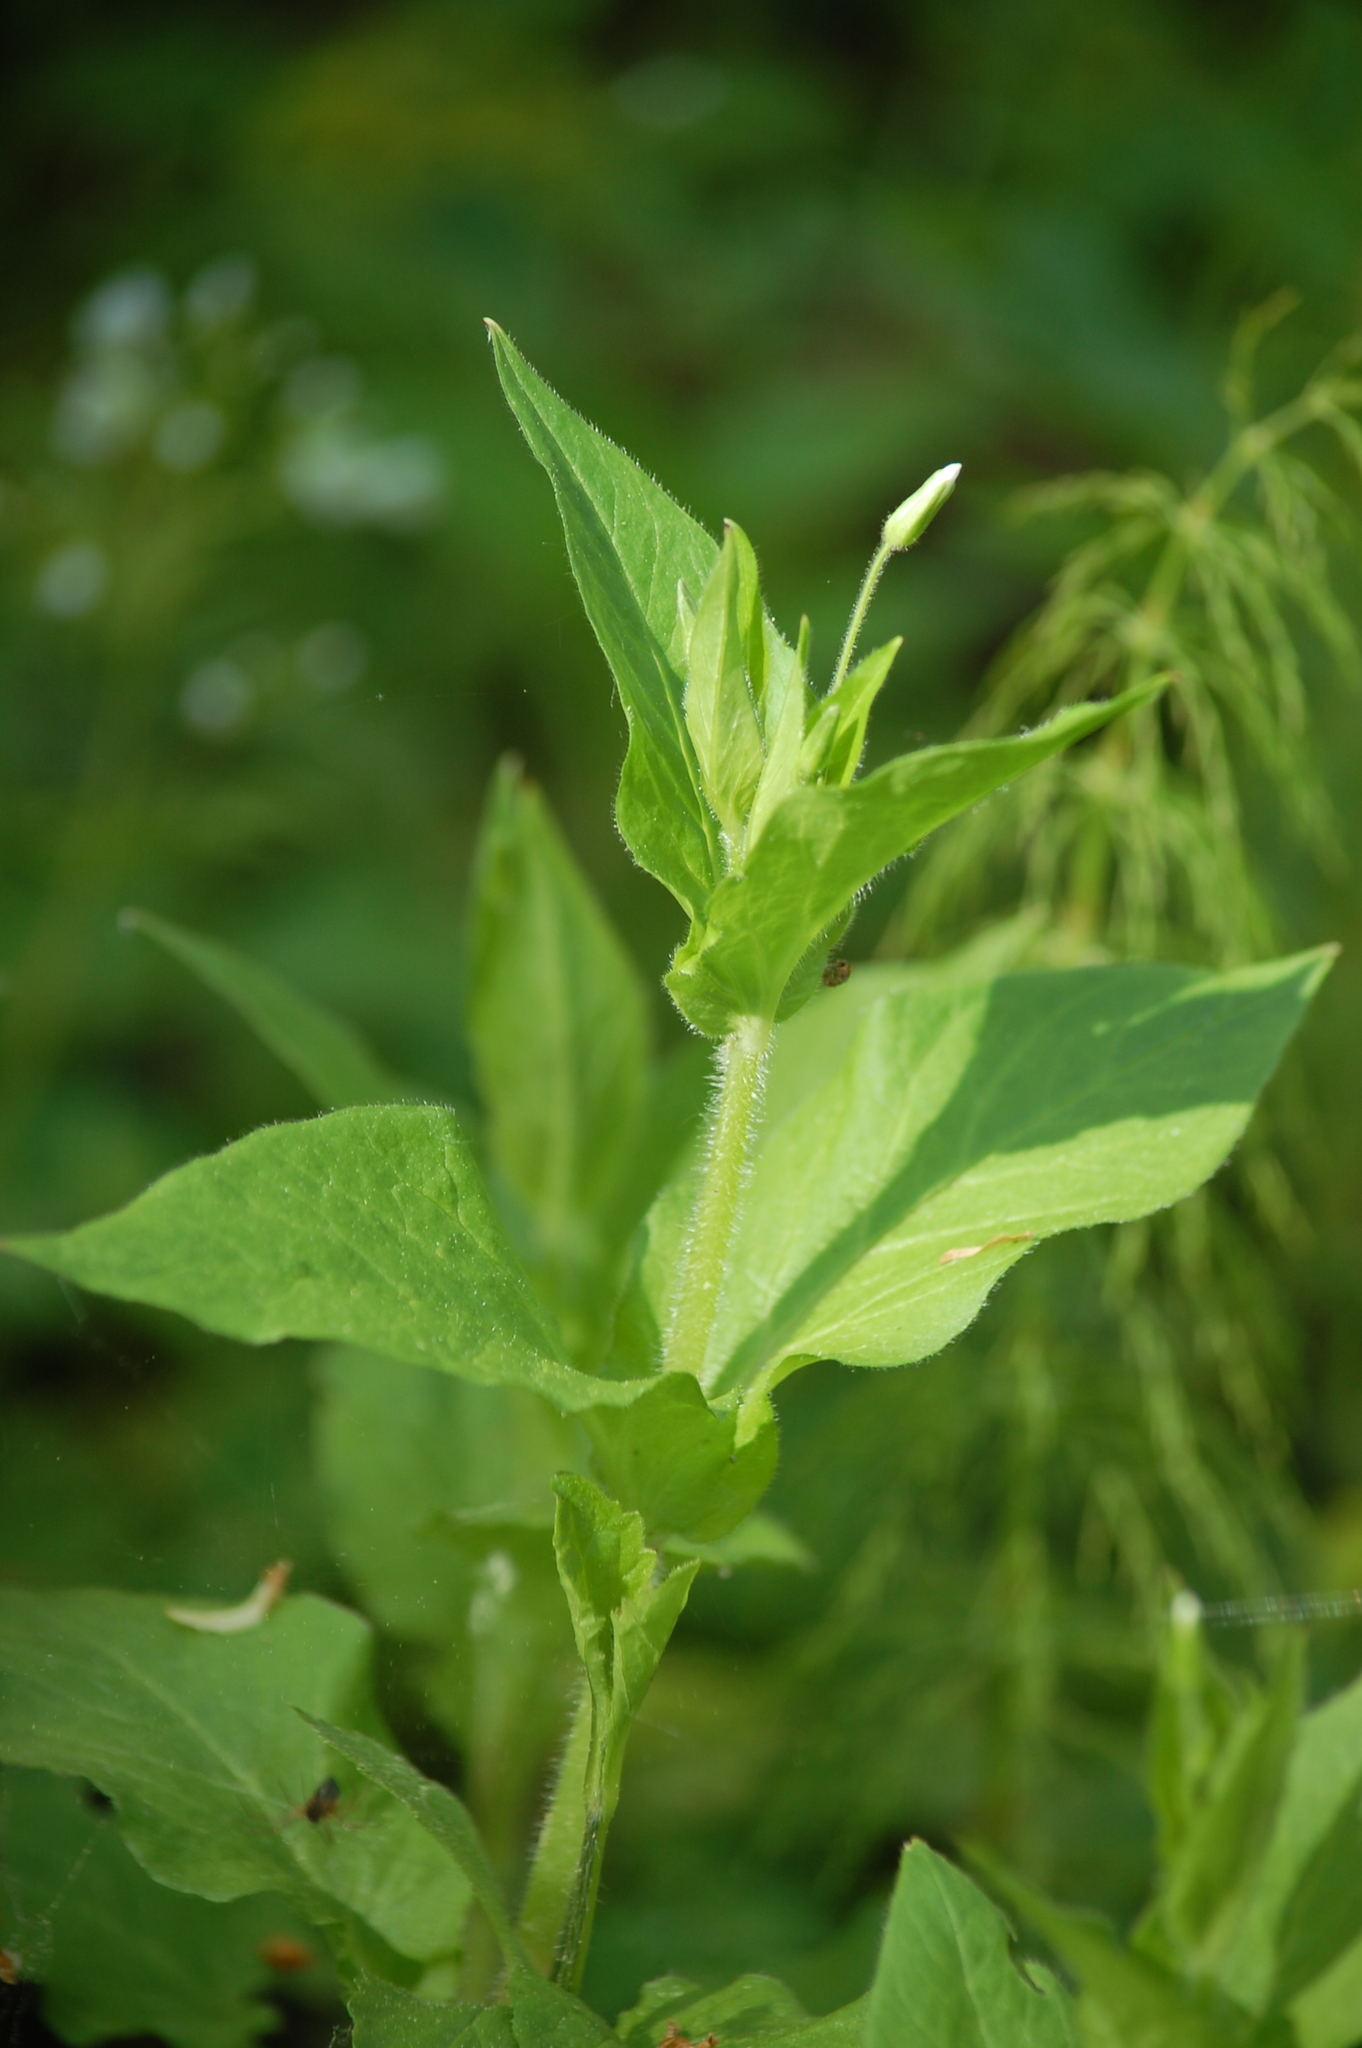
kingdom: Plantae
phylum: Tracheophyta
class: Magnoliopsida
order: Caryophyllales
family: Caryophyllaceae
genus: Stellaria
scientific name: Stellaria nemorum
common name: Wood stitchwort
